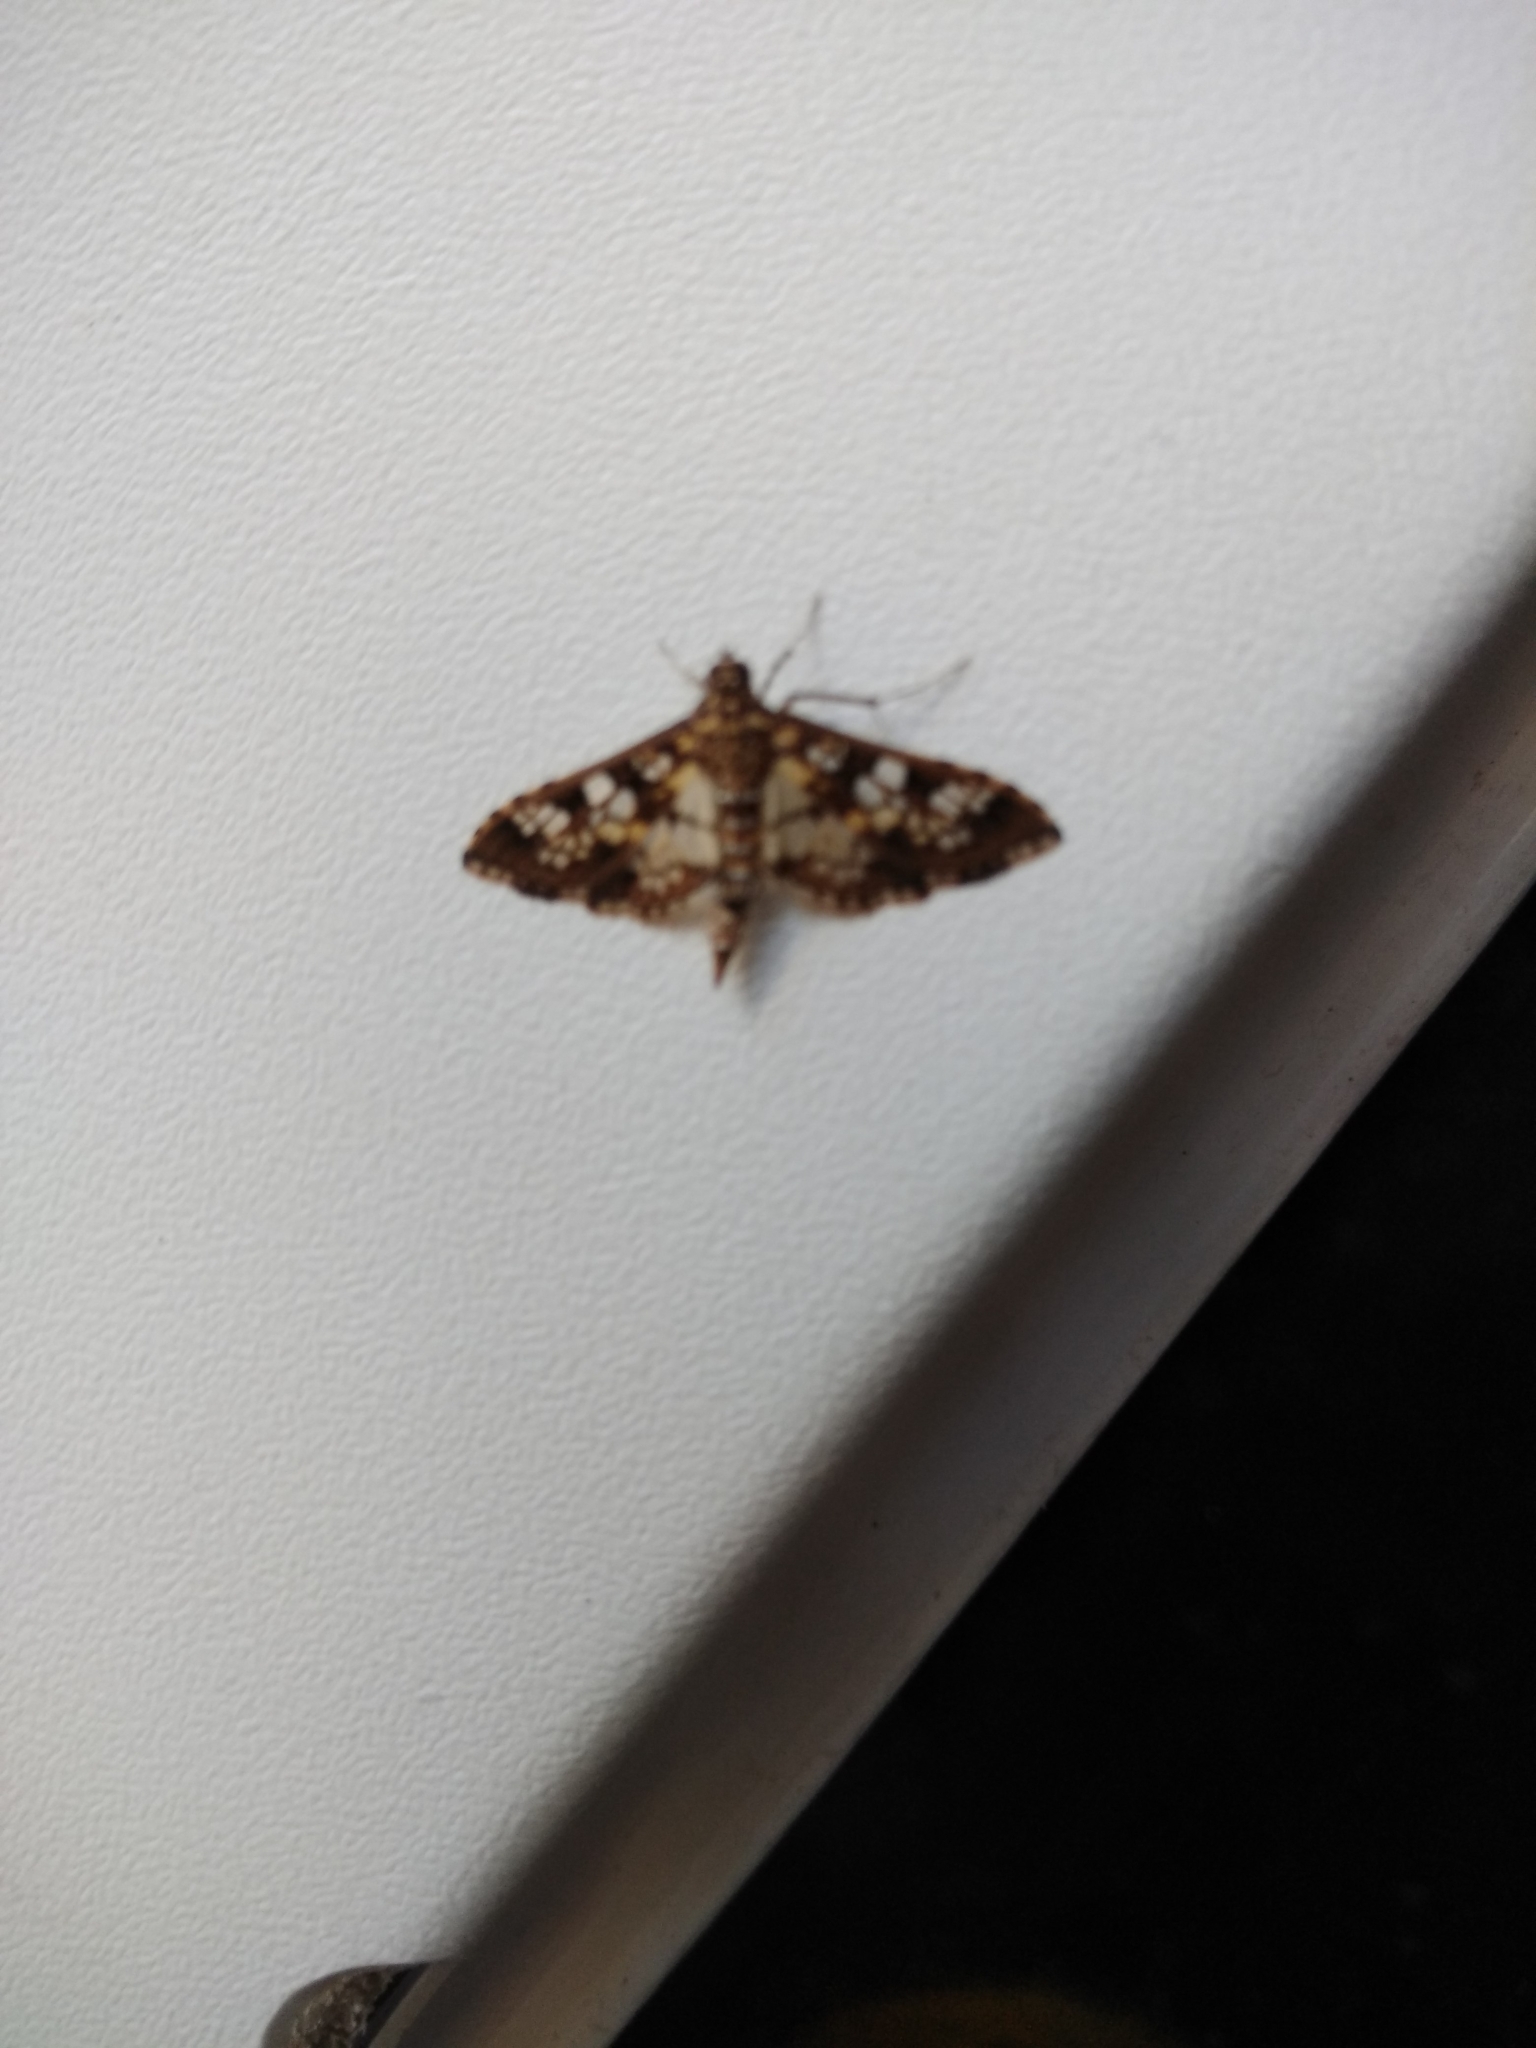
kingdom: Animalia
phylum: Arthropoda
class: Insecta
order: Lepidoptera
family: Crambidae
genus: Samea
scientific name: Samea ecclesialis
